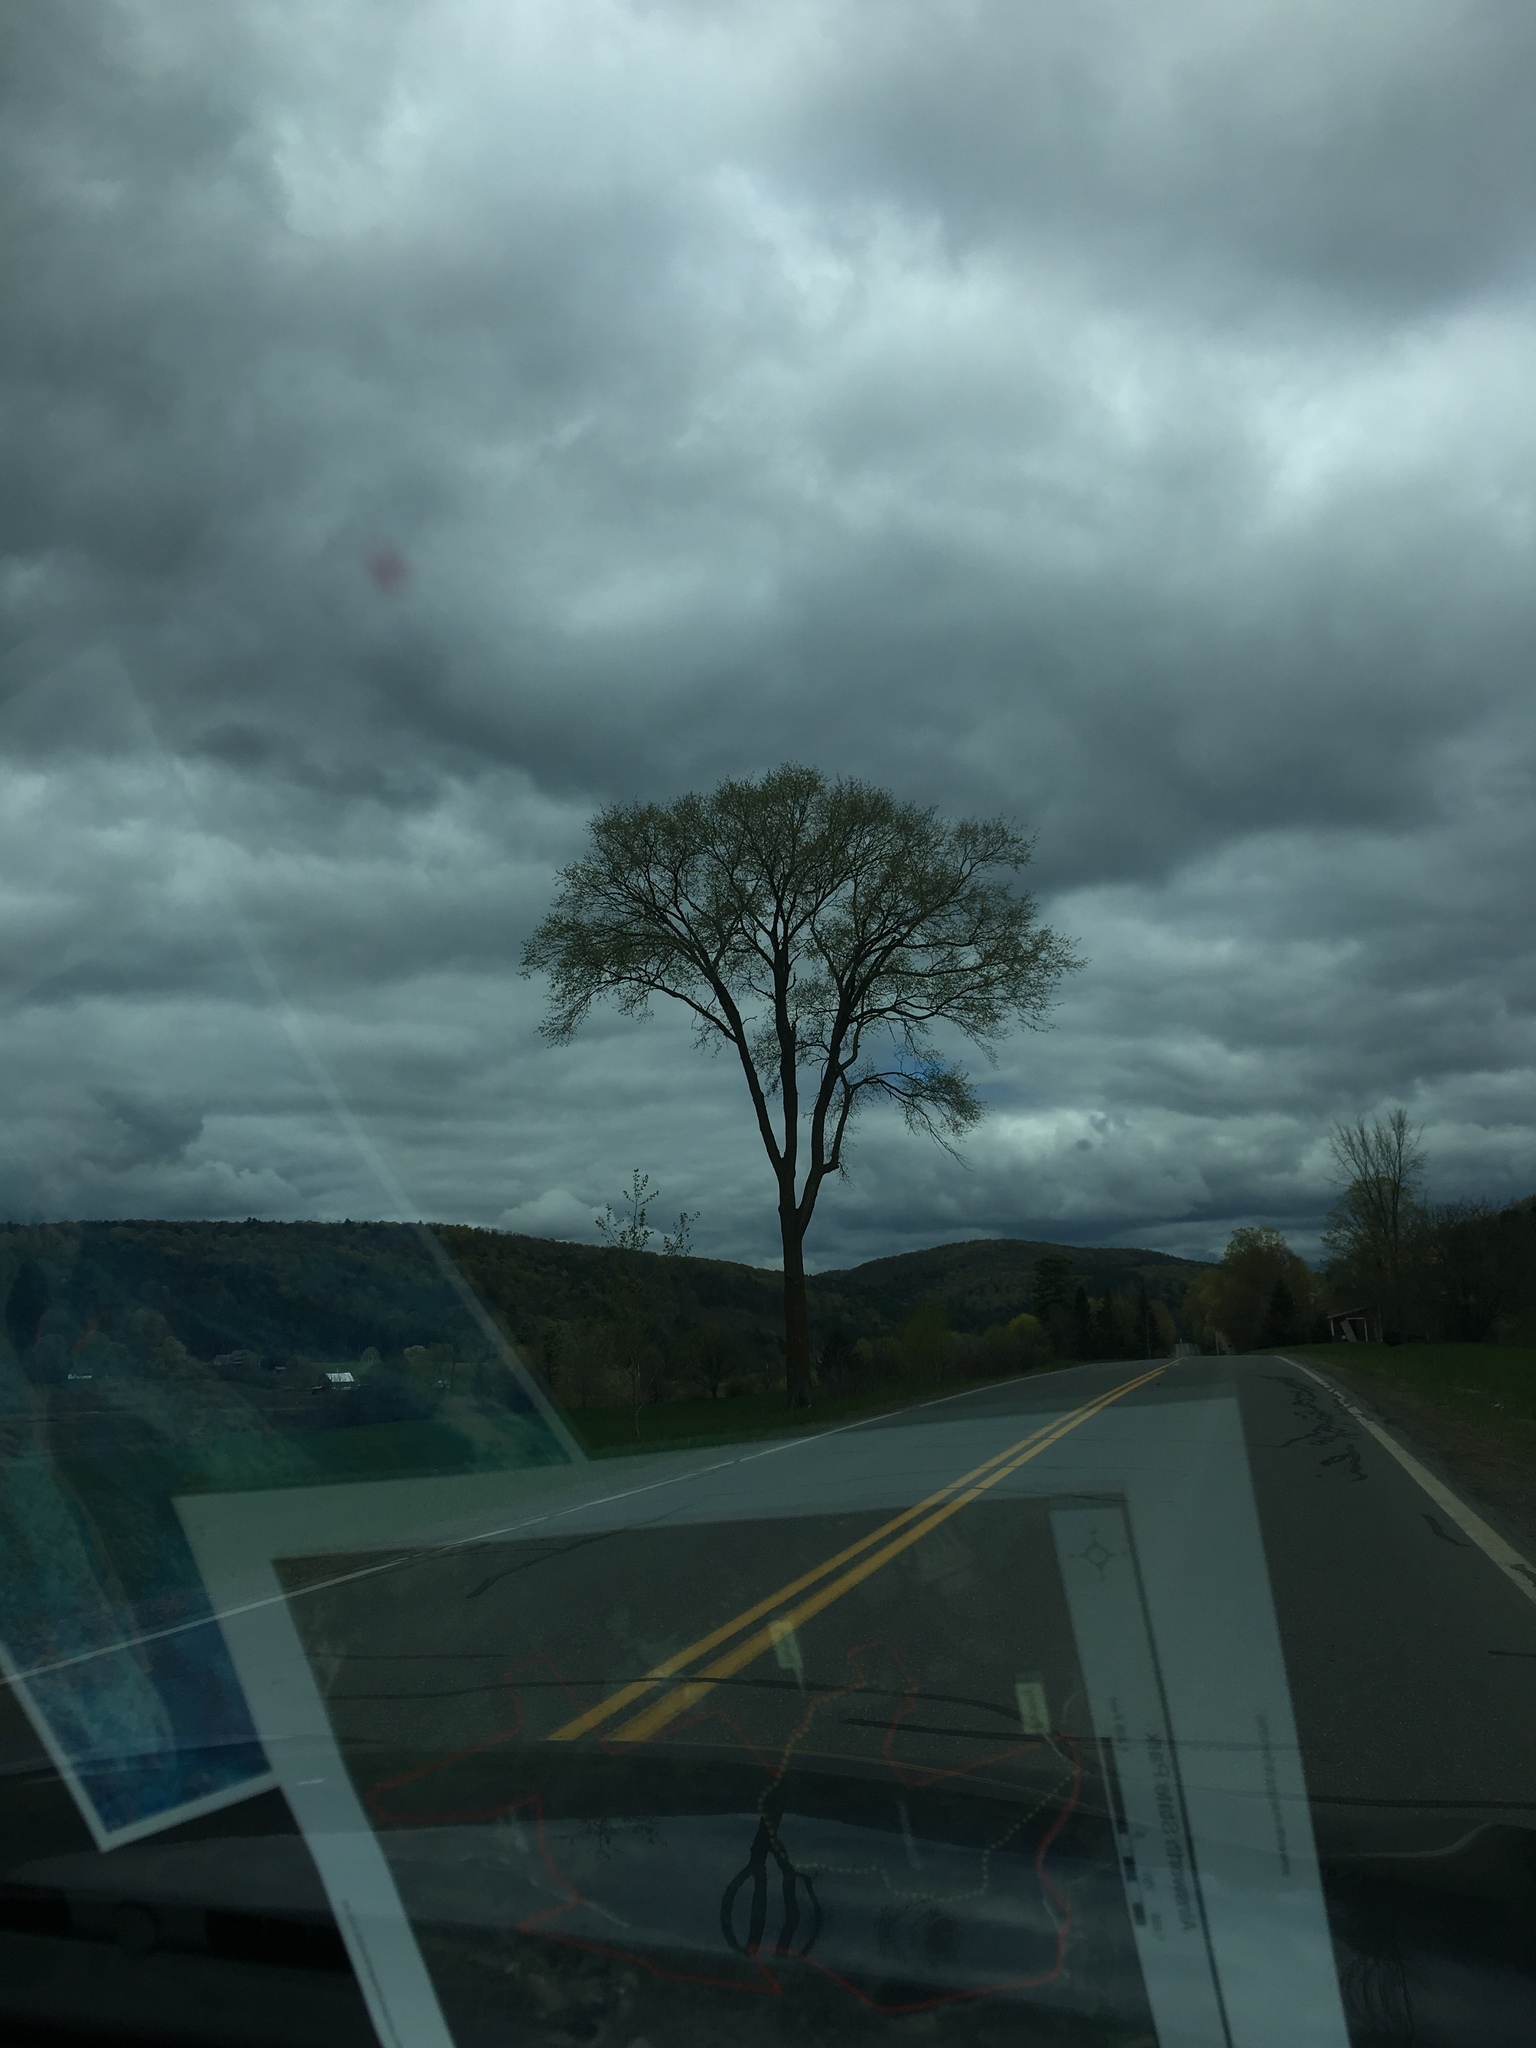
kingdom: Plantae
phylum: Tracheophyta
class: Magnoliopsida
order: Rosales
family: Ulmaceae
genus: Ulmus
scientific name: Ulmus americana
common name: American elm
